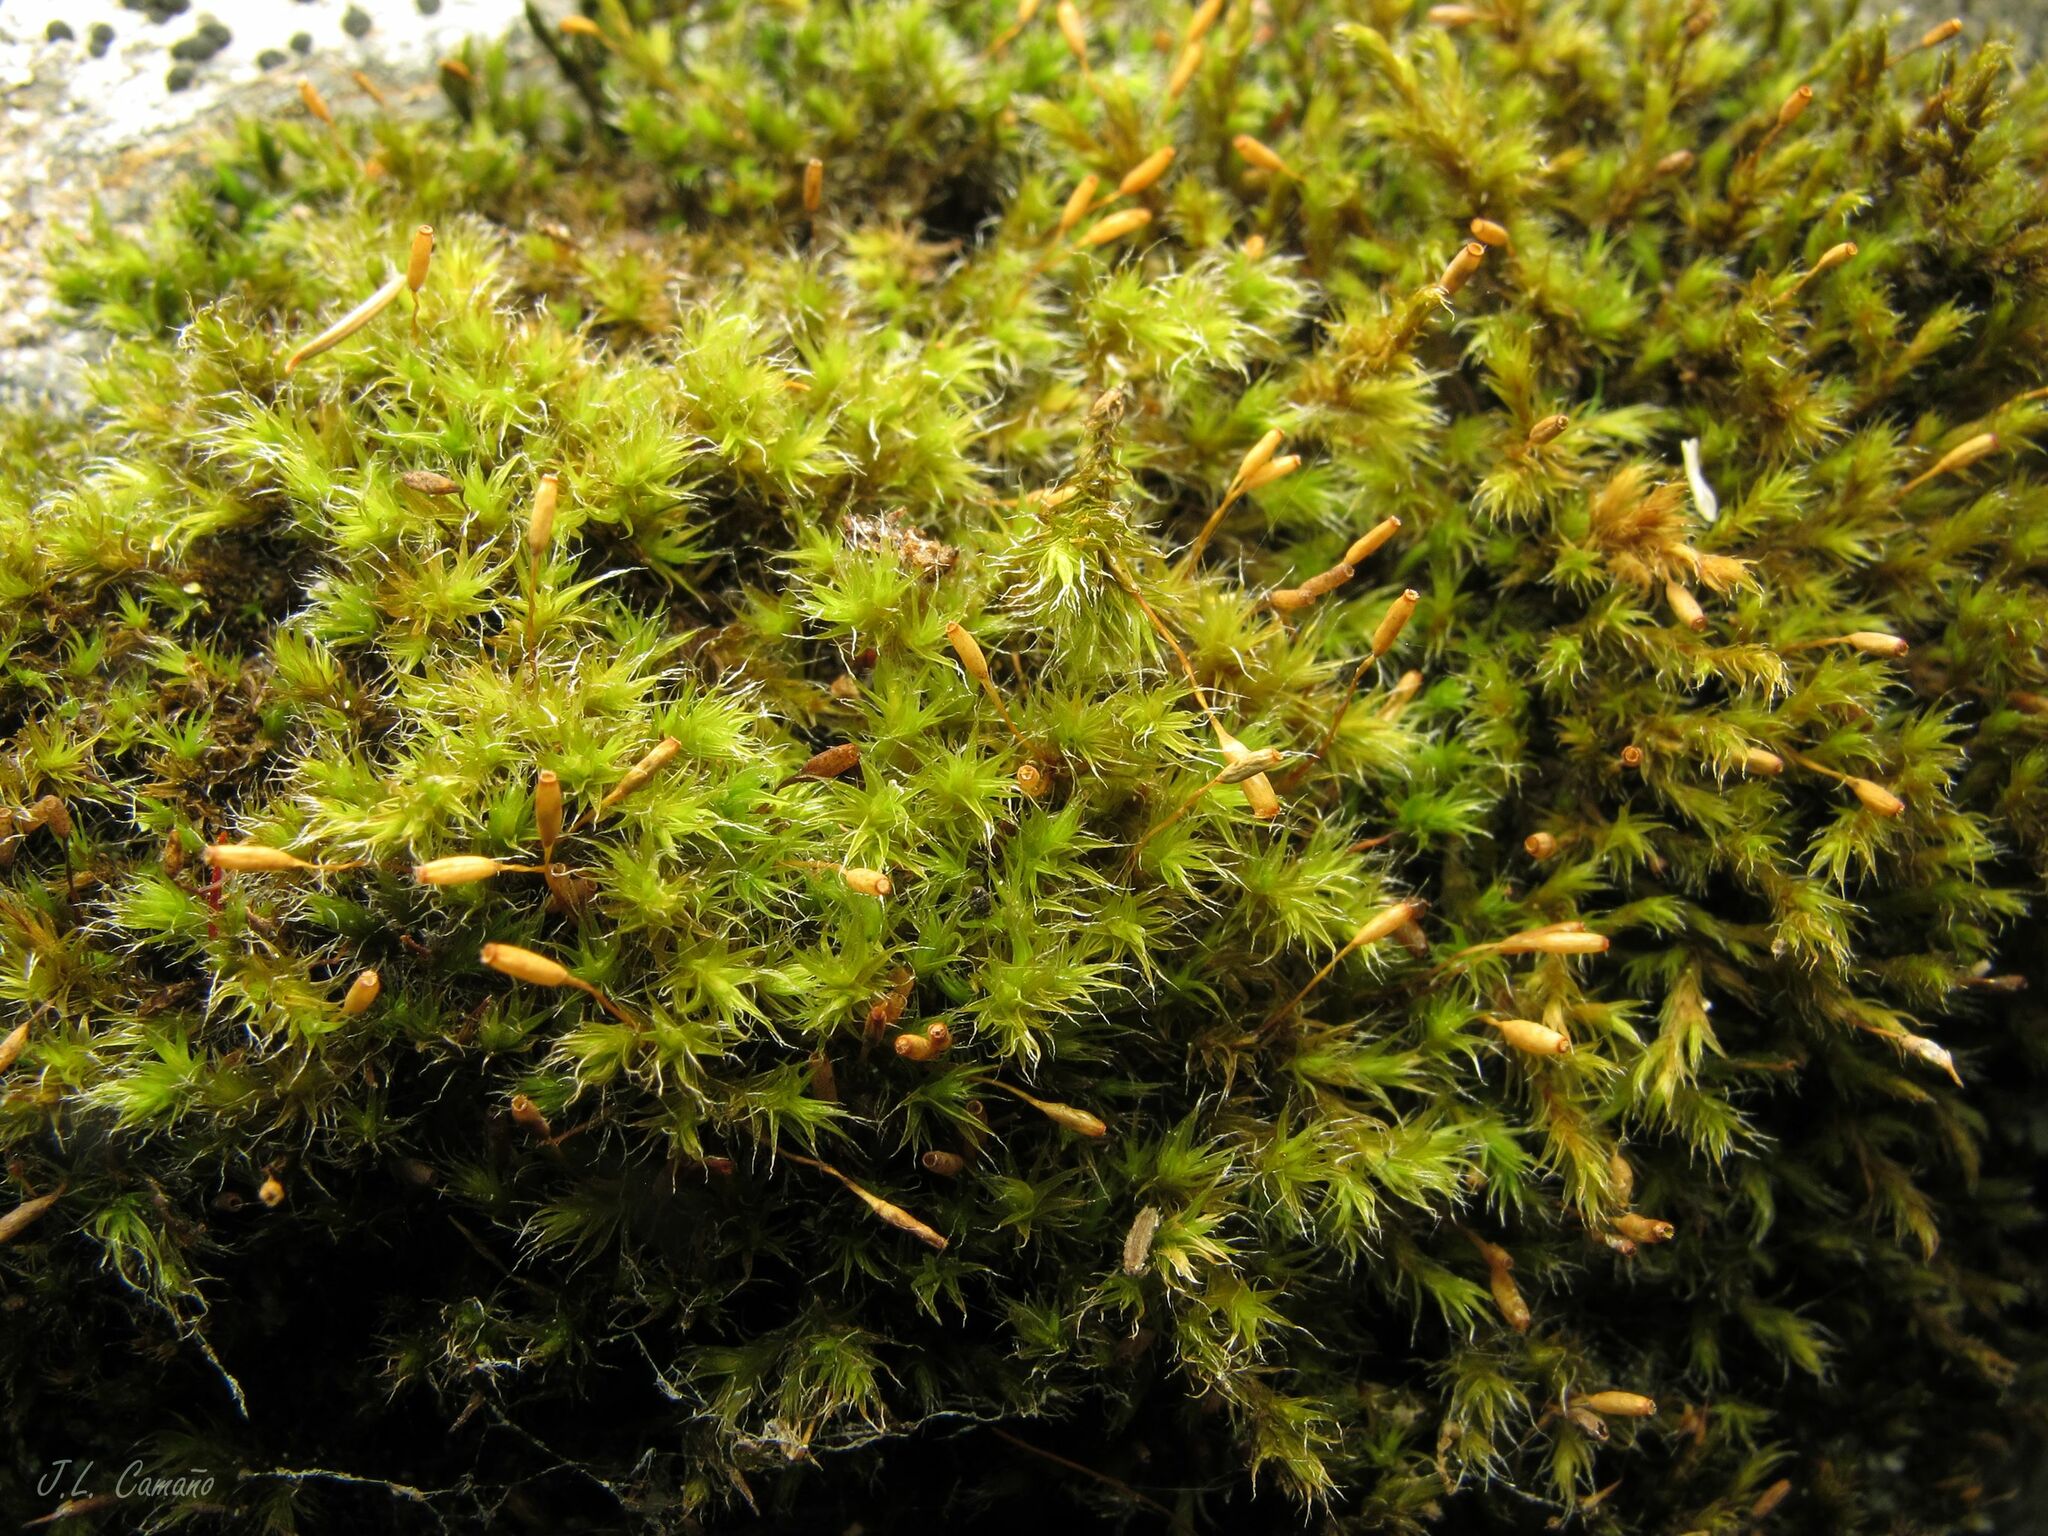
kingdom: Plantae
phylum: Bryophyta
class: Bryopsida
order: Grimmiales
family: Grimmiaceae
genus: Bucklandiella
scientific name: Bucklandiella heterosticha
